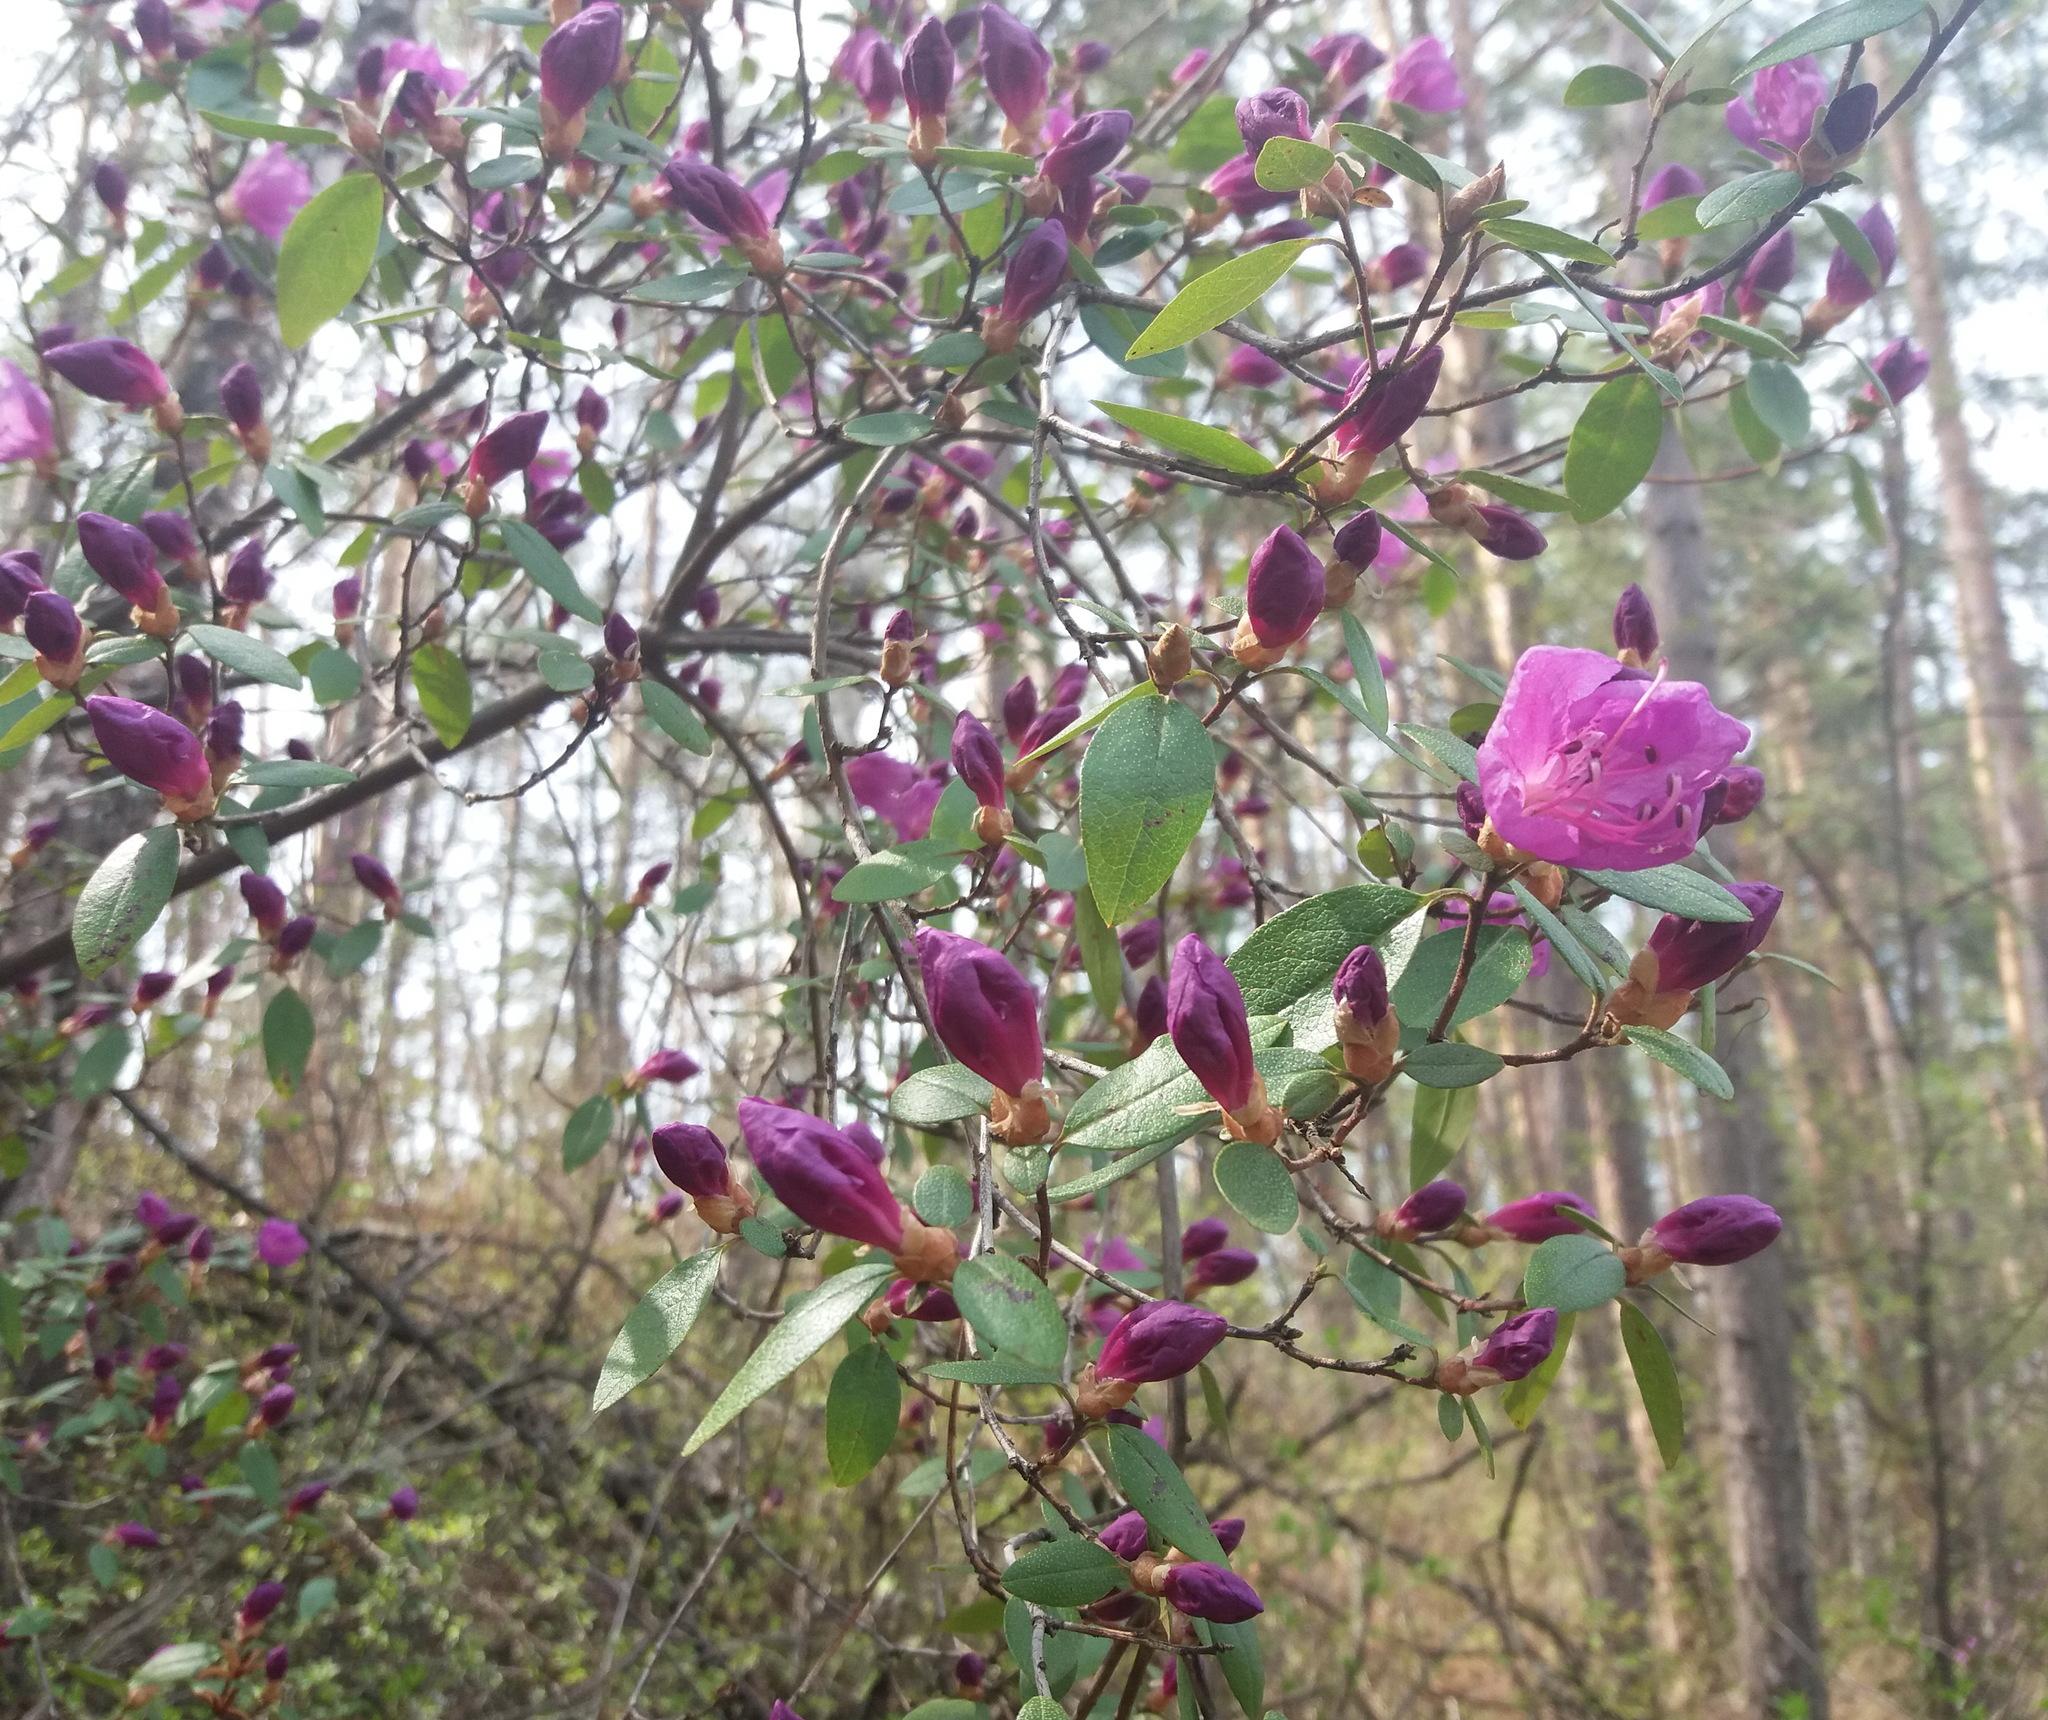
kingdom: Plantae
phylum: Tracheophyta
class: Magnoliopsida
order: Ericales
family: Ericaceae
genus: Rhododendron
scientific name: Rhododendron dauricum
